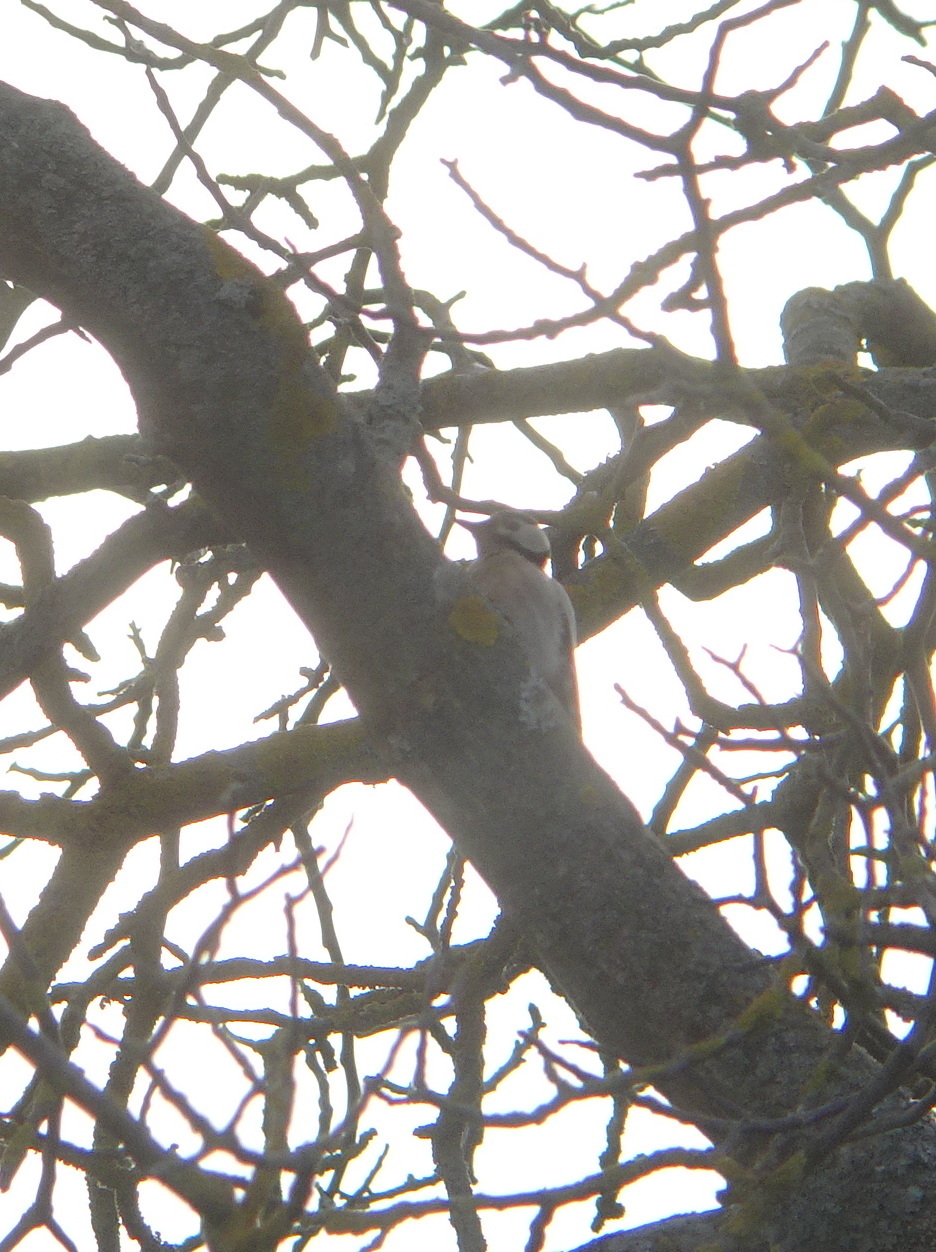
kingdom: Animalia
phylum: Chordata
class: Aves
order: Piciformes
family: Picidae
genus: Dendrocopos
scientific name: Dendrocopos major
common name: Great spotted woodpecker
